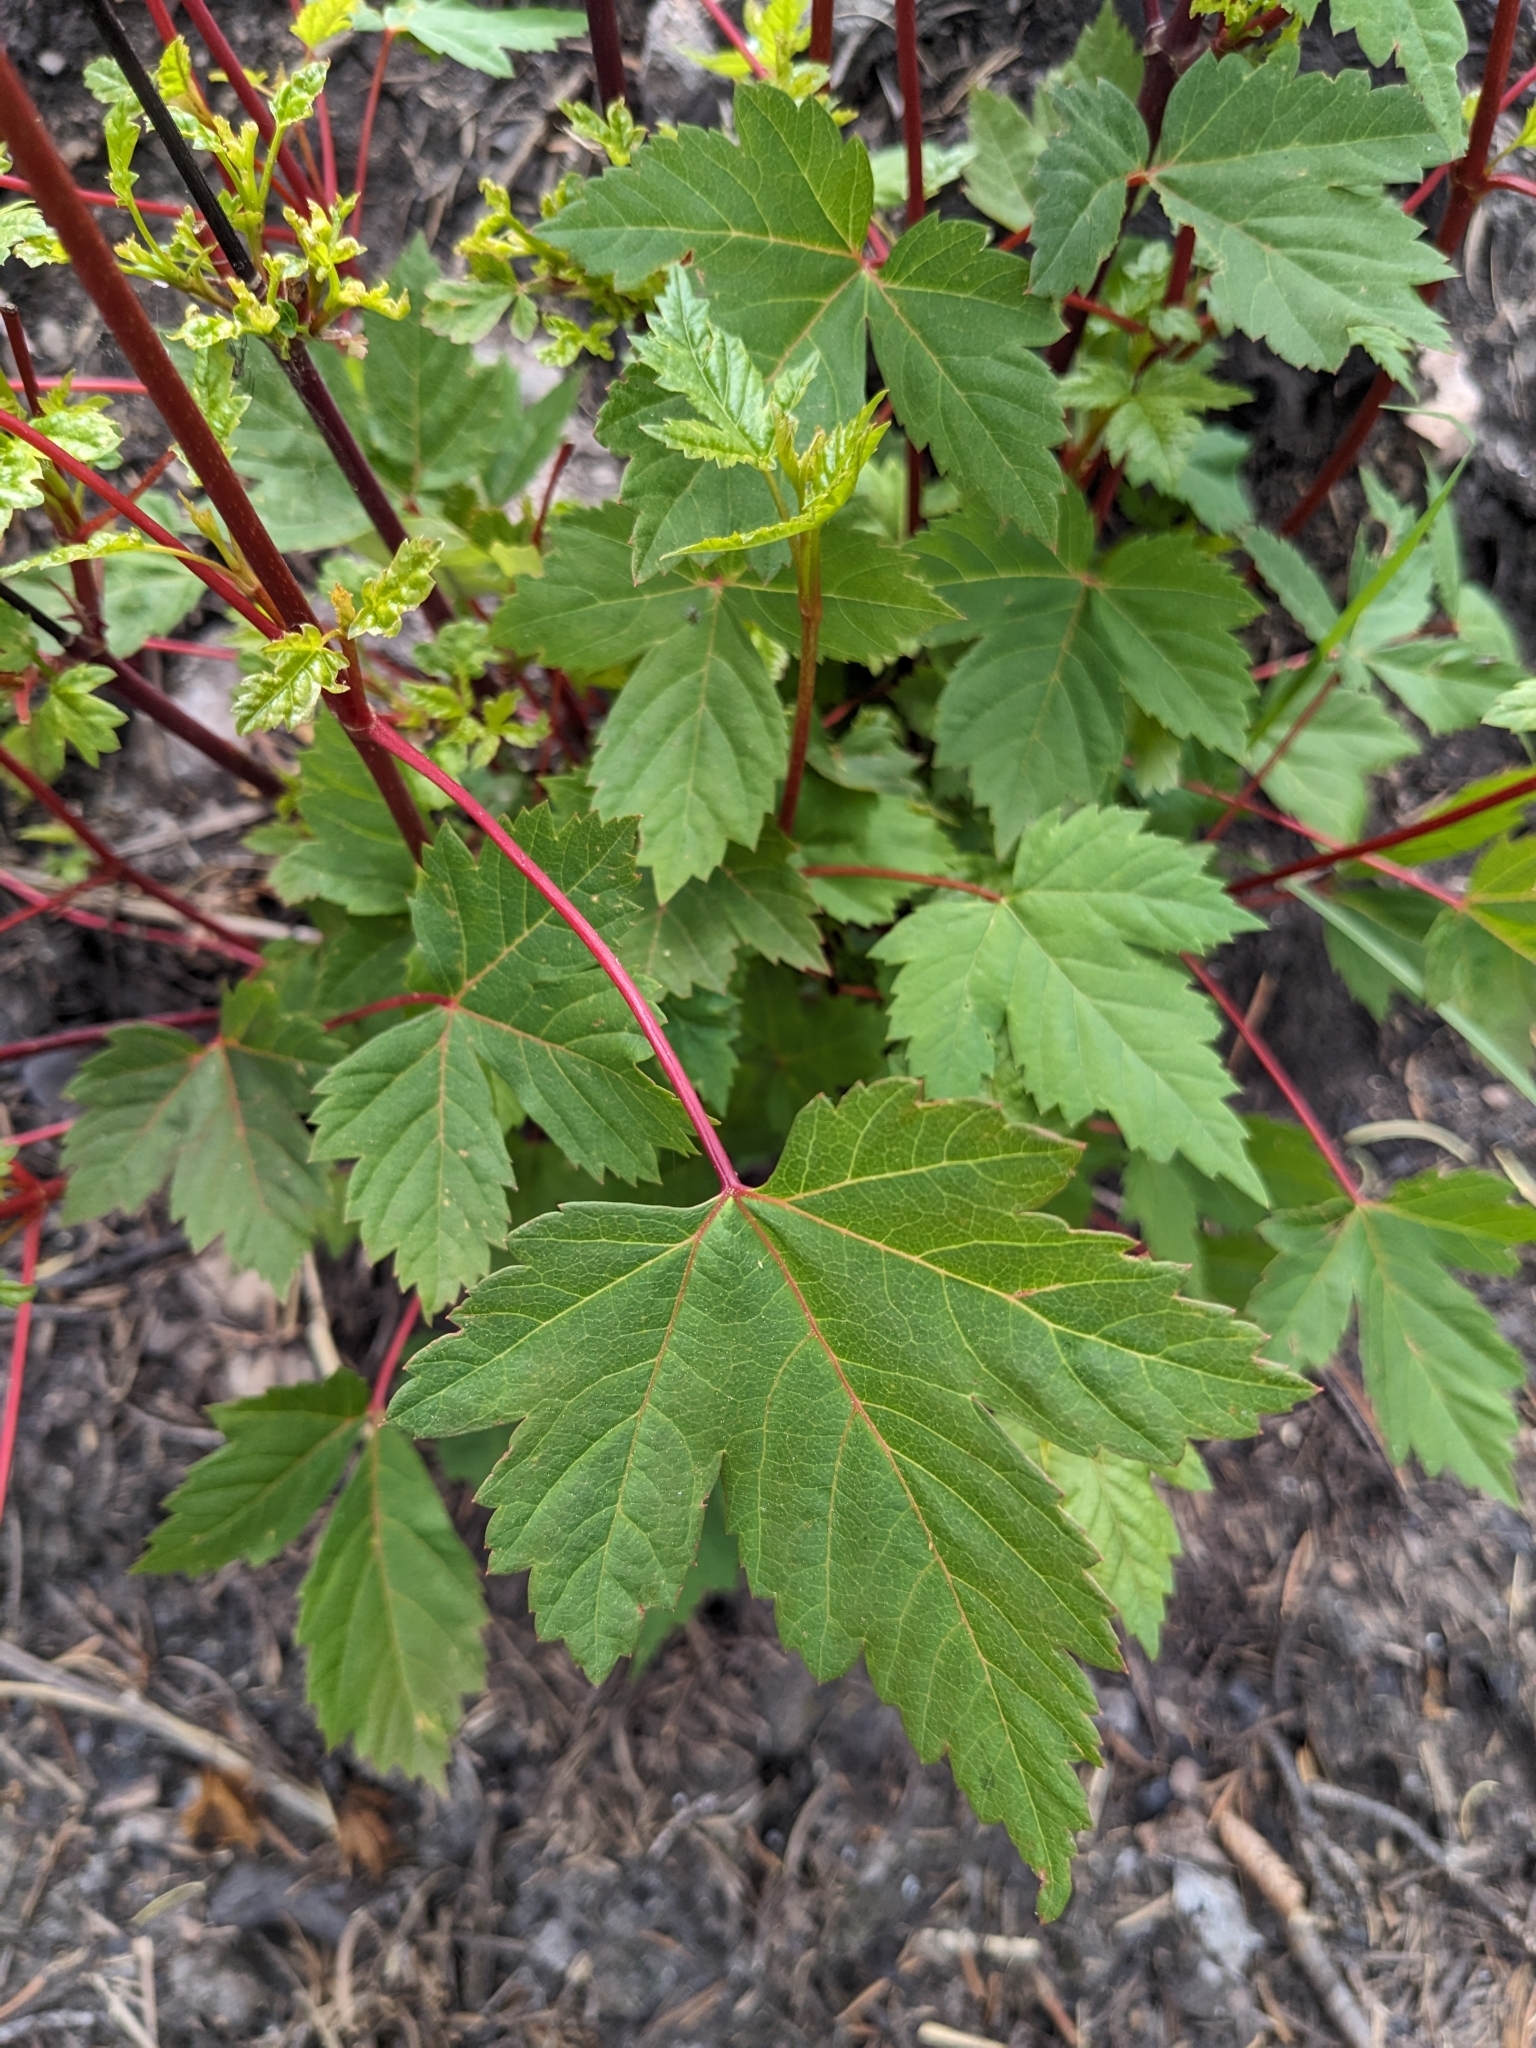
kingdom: Plantae
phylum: Tracheophyta
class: Magnoliopsida
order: Sapindales
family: Sapindaceae
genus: Acer
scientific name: Acer glabrum
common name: Rocky mountain maple
